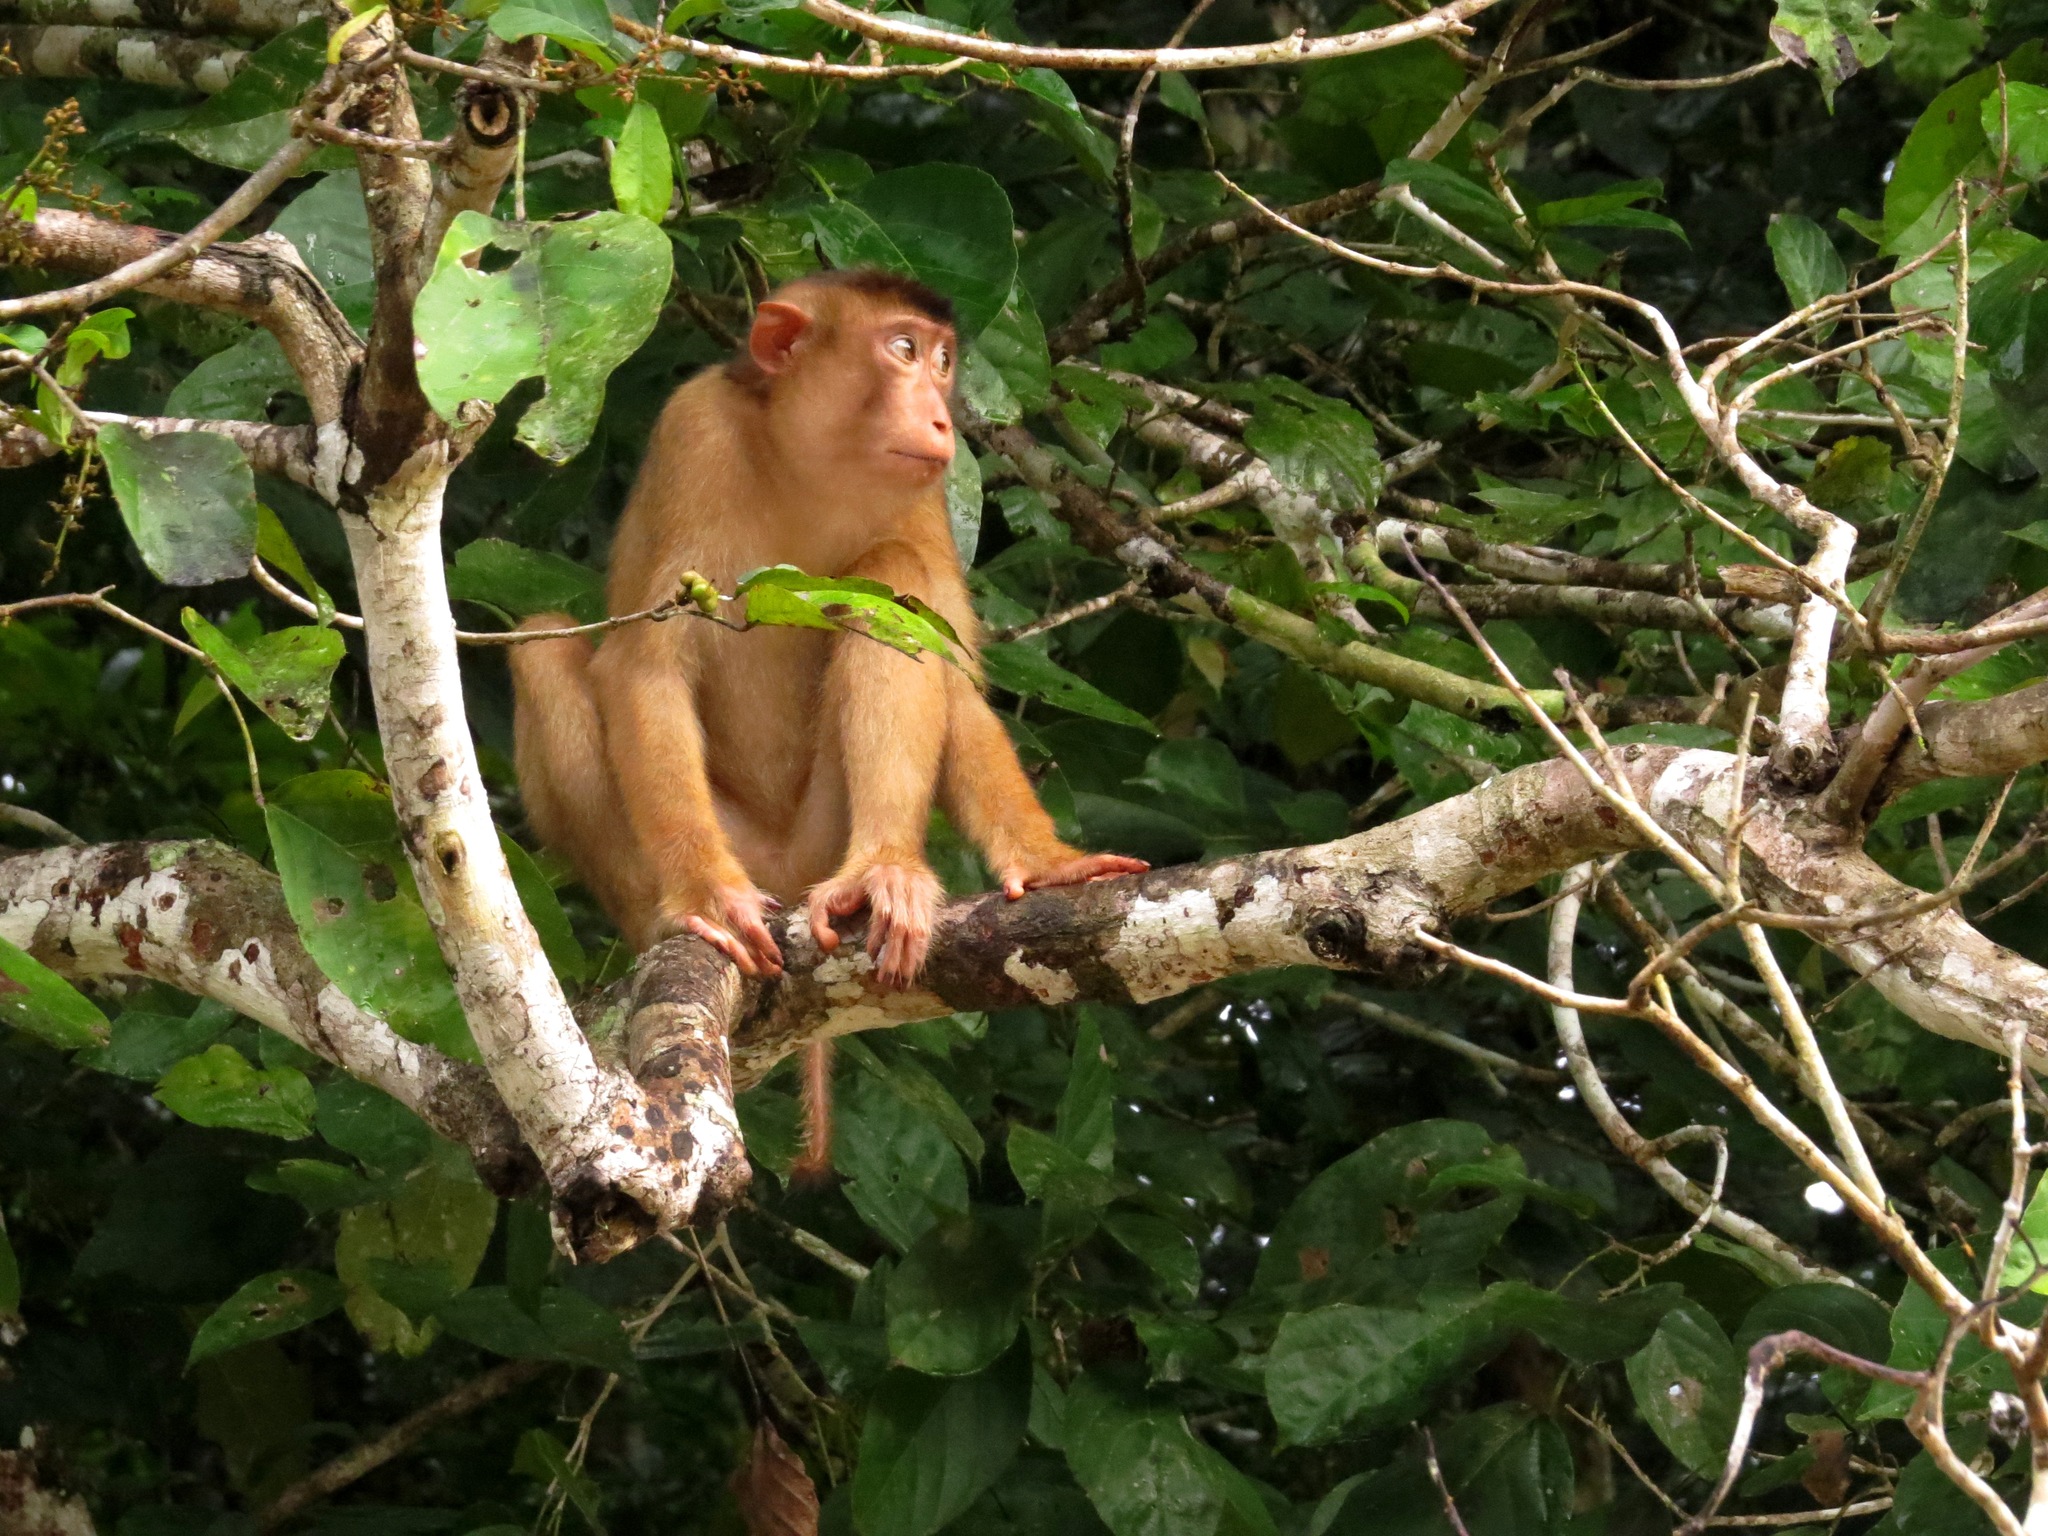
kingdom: Animalia
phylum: Chordata
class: Mammalia
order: Primates
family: Cercopithecidae
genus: Macaca
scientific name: Macaca nemestrina
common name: Southern pig-tailed macaque
